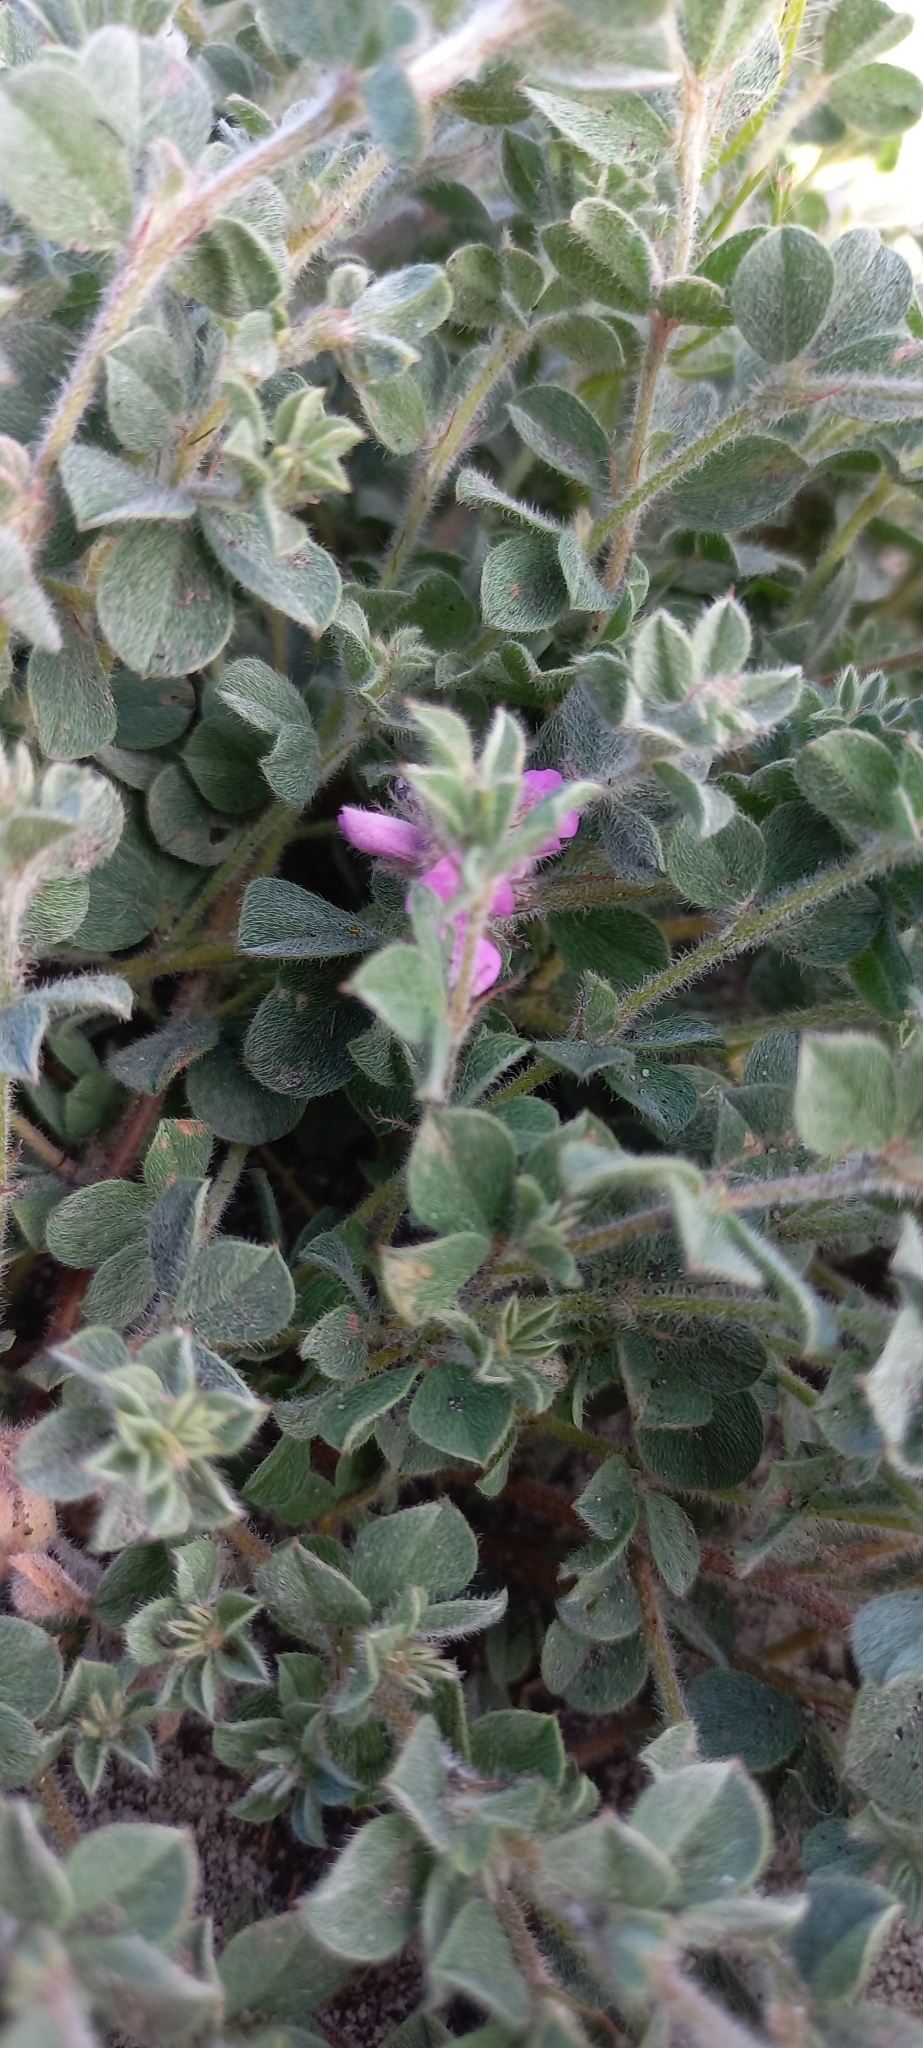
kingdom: Plantae
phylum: Tracheophyta
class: Magnoliopsida
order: Fabales
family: Fabaceae
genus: Indigofera
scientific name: Indigofera glomerata
